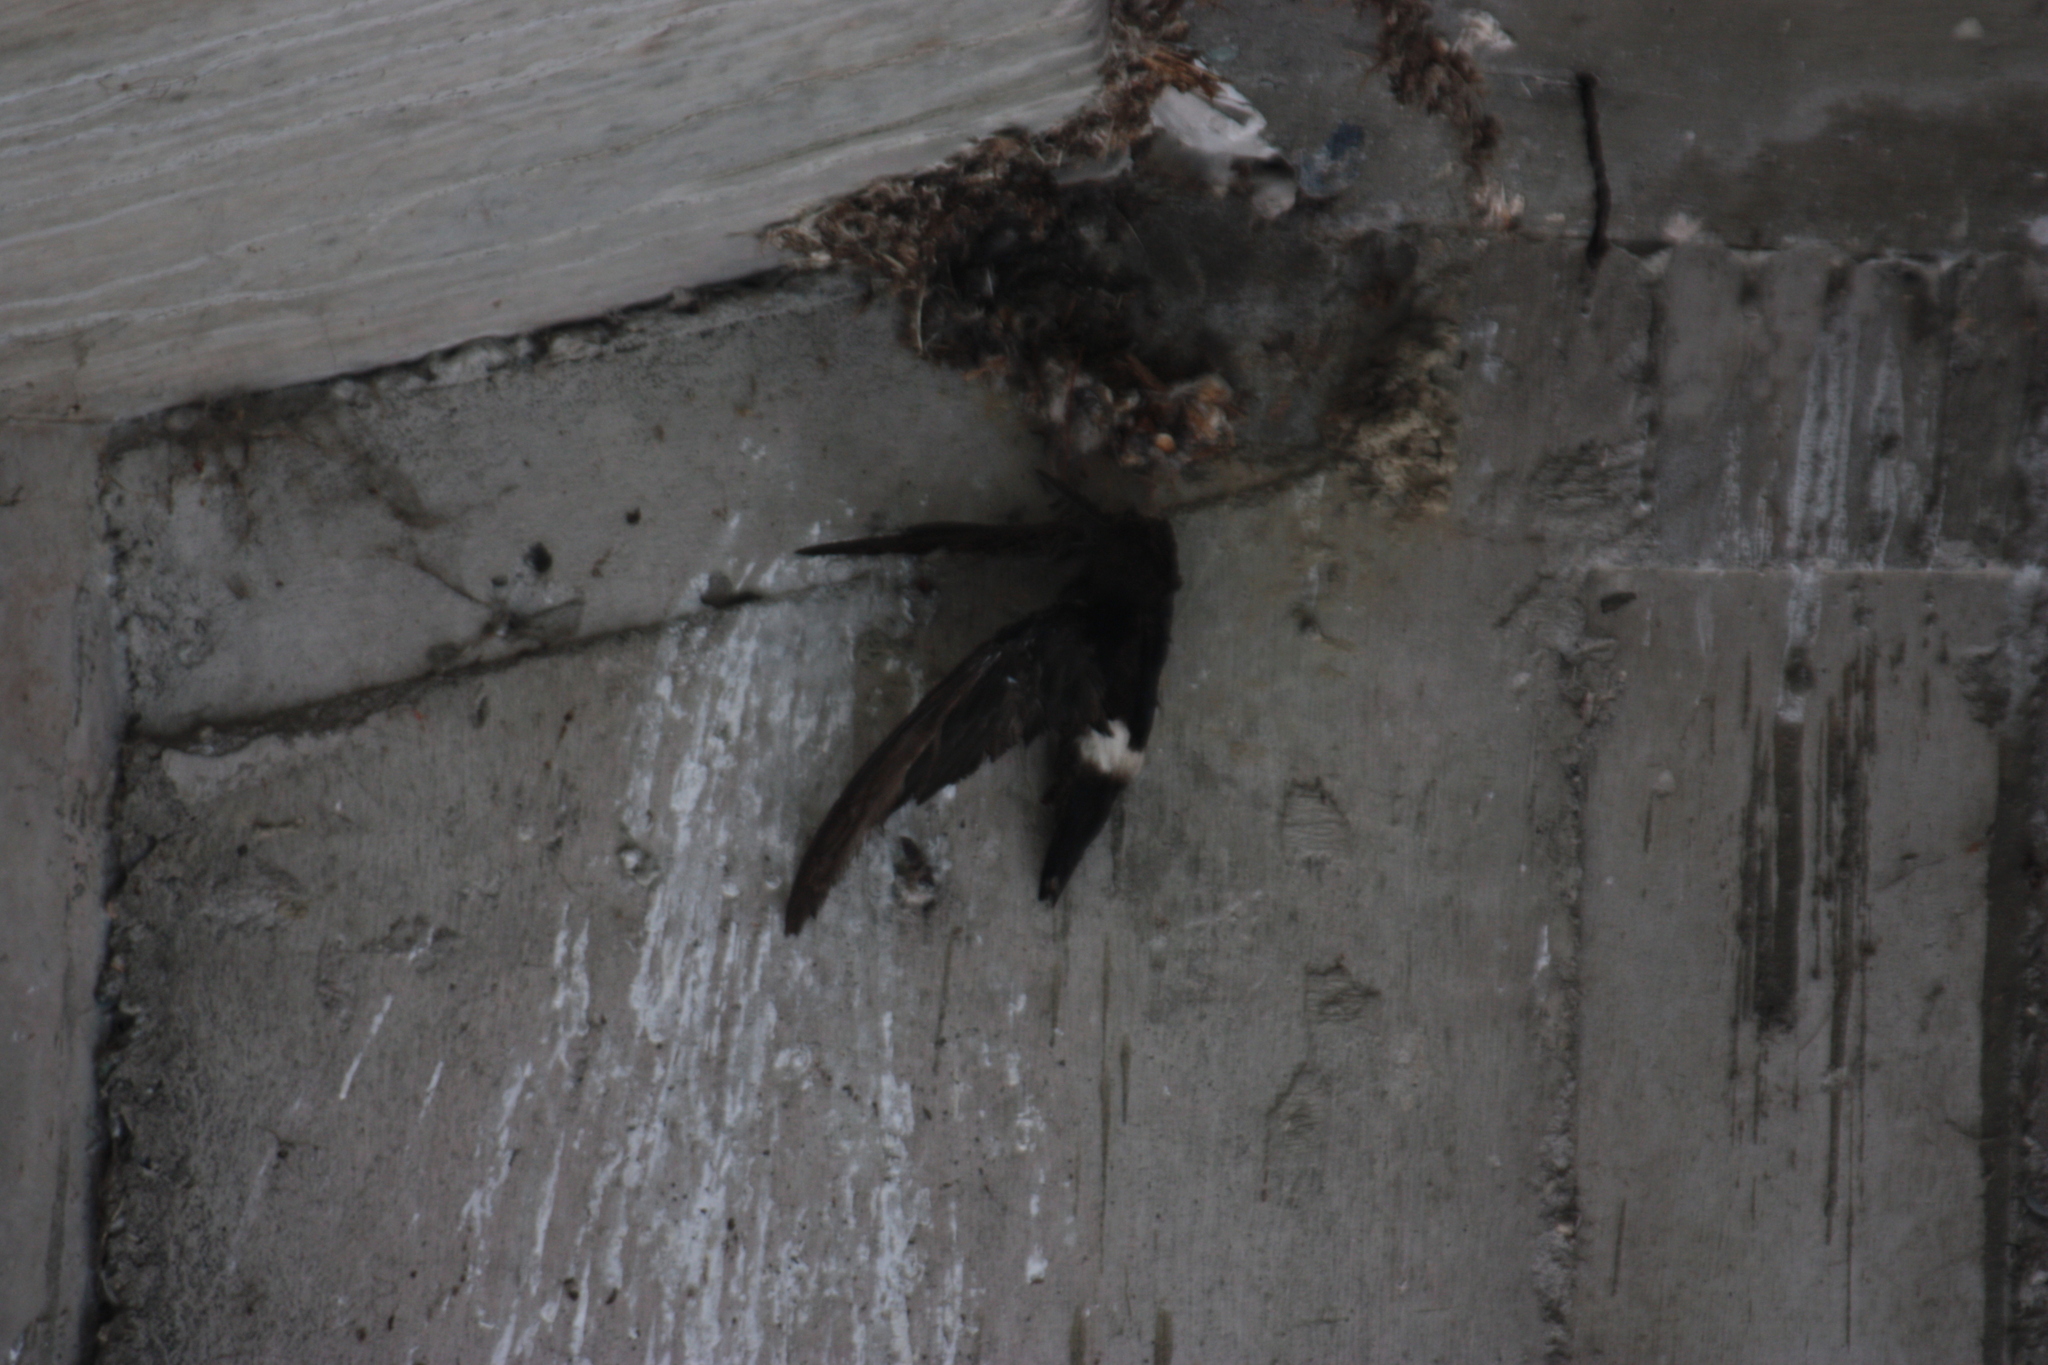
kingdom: Animalia
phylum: Chordata
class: Aves
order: Apodiformes
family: Apodidae
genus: Apus
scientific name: Apus nipalensis
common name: House swift
